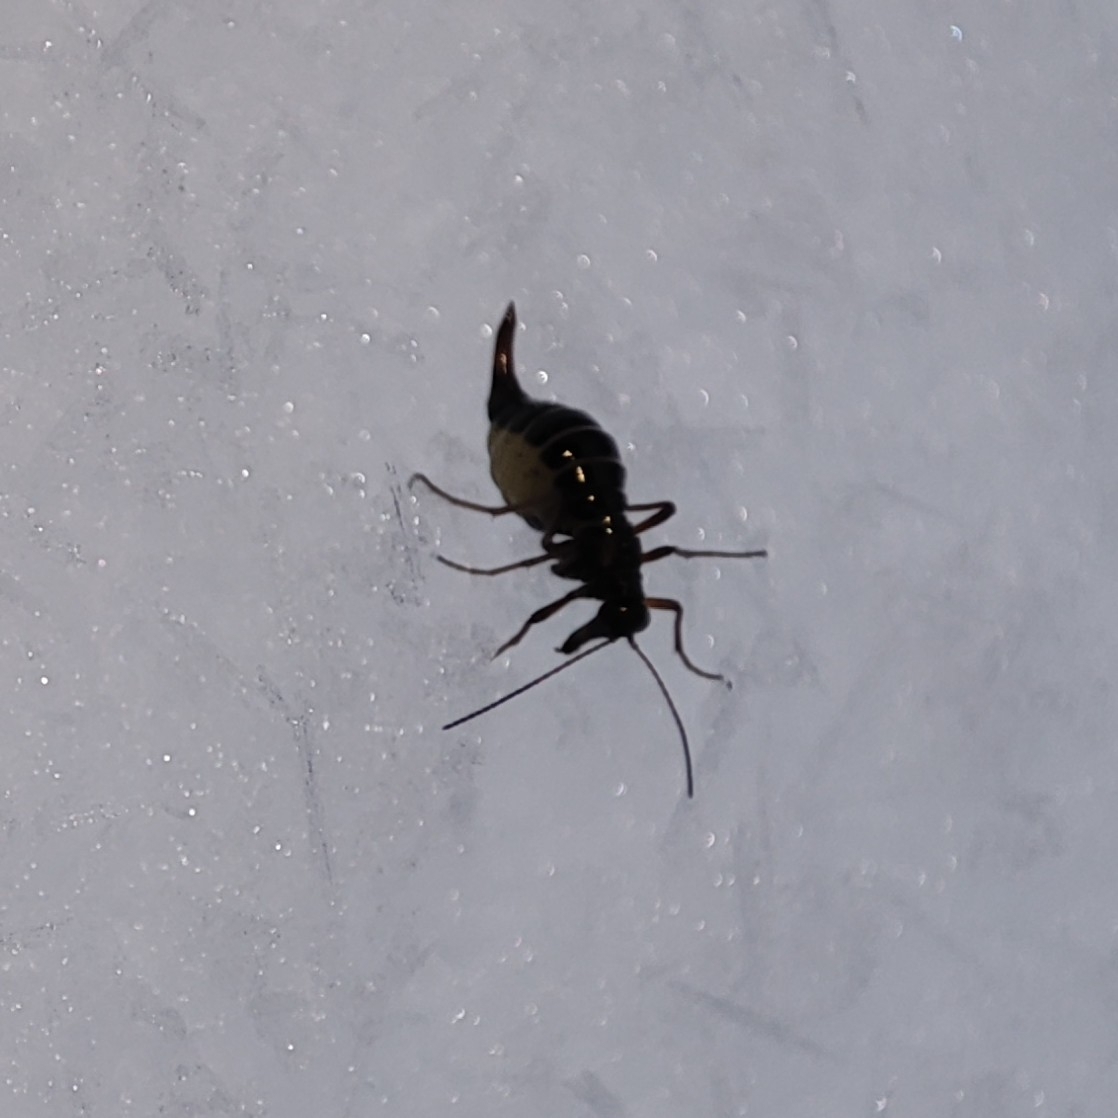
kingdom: Animalia
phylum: Arthropoda
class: Insecta
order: Mecoptera
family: Boreidae
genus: Boreus
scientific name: Boreus westwoodi
